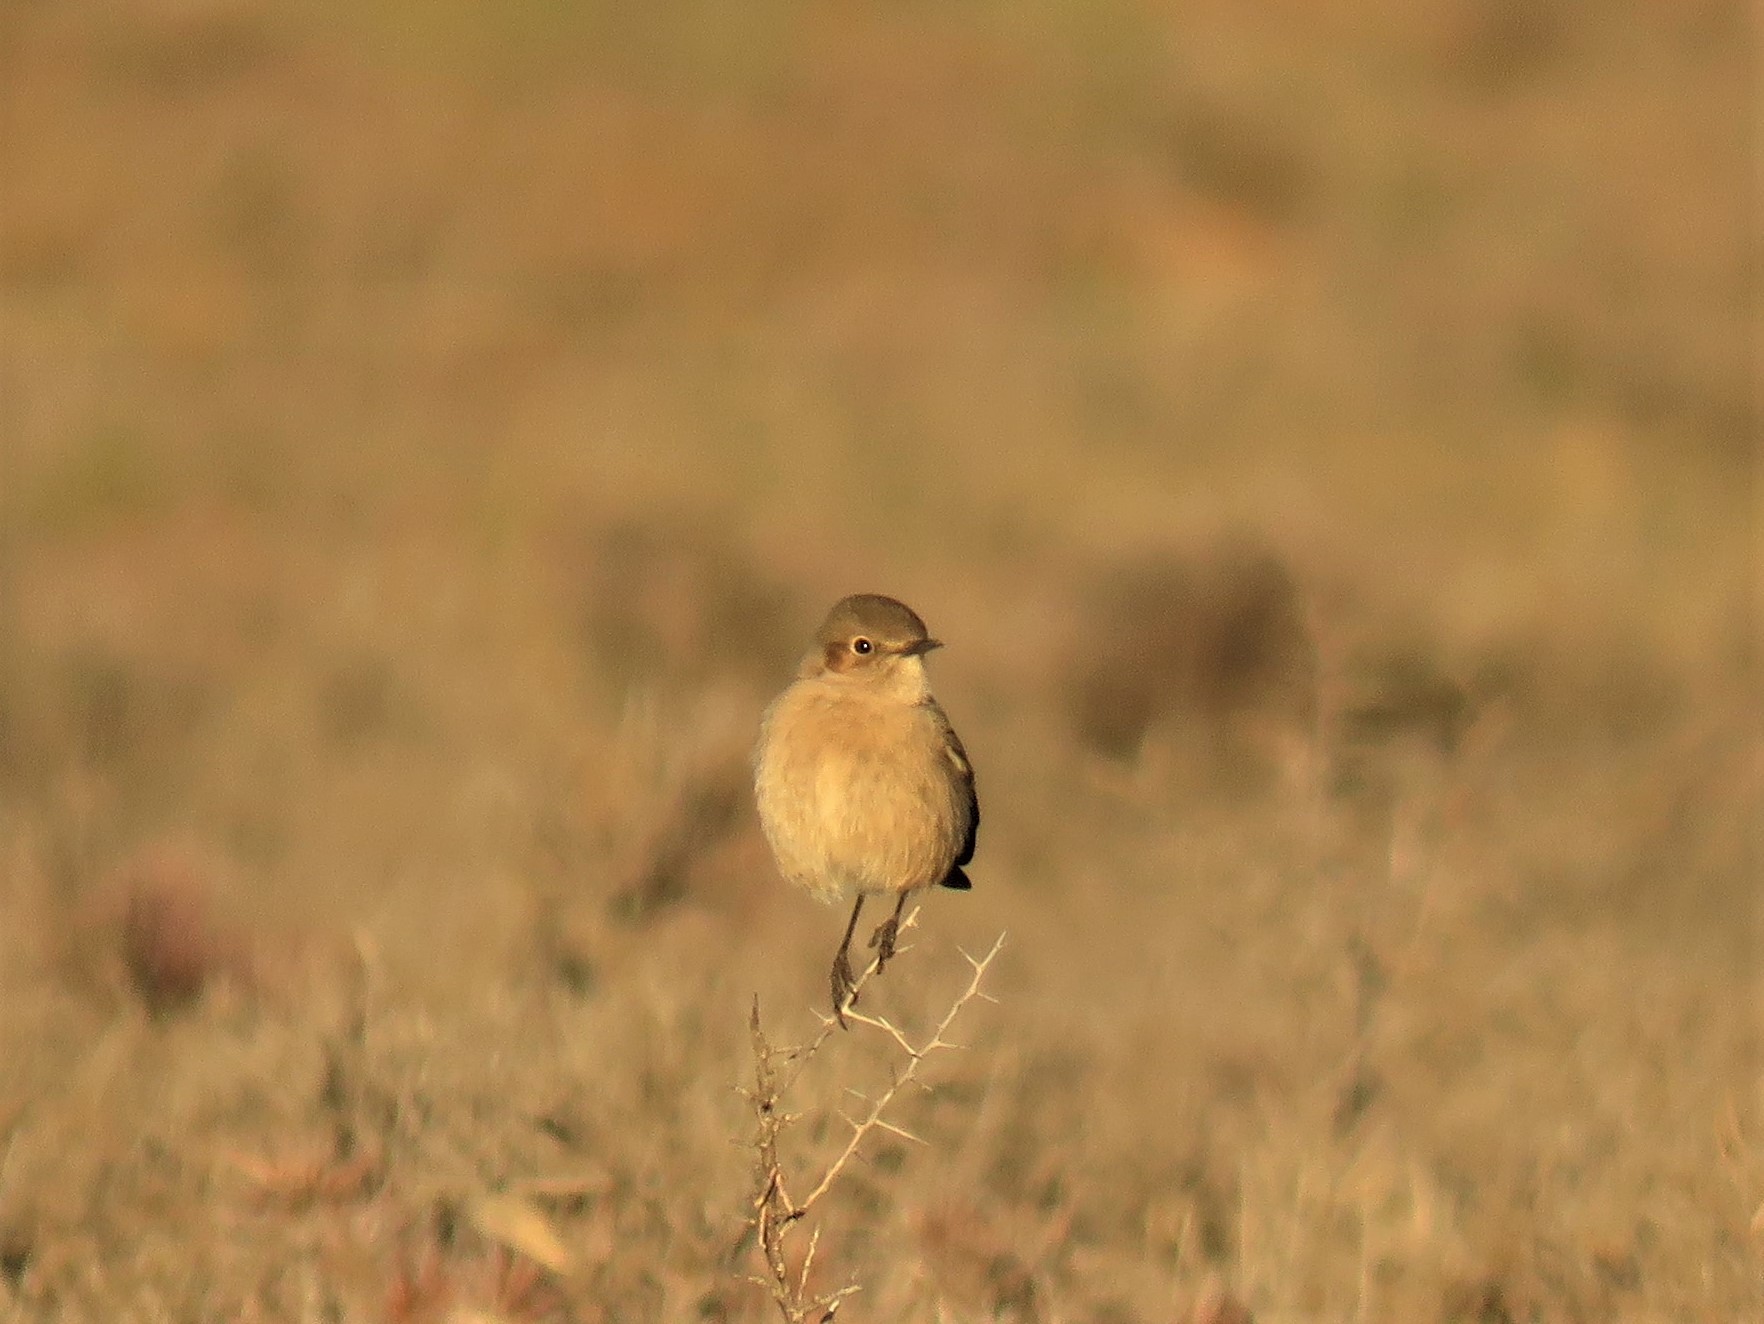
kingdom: Animalia
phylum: Chordata
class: Aves
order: Passeriformes
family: Muscicapidae
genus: Emarginata
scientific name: Emarginata sinuata
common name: Sickle-winged chat
